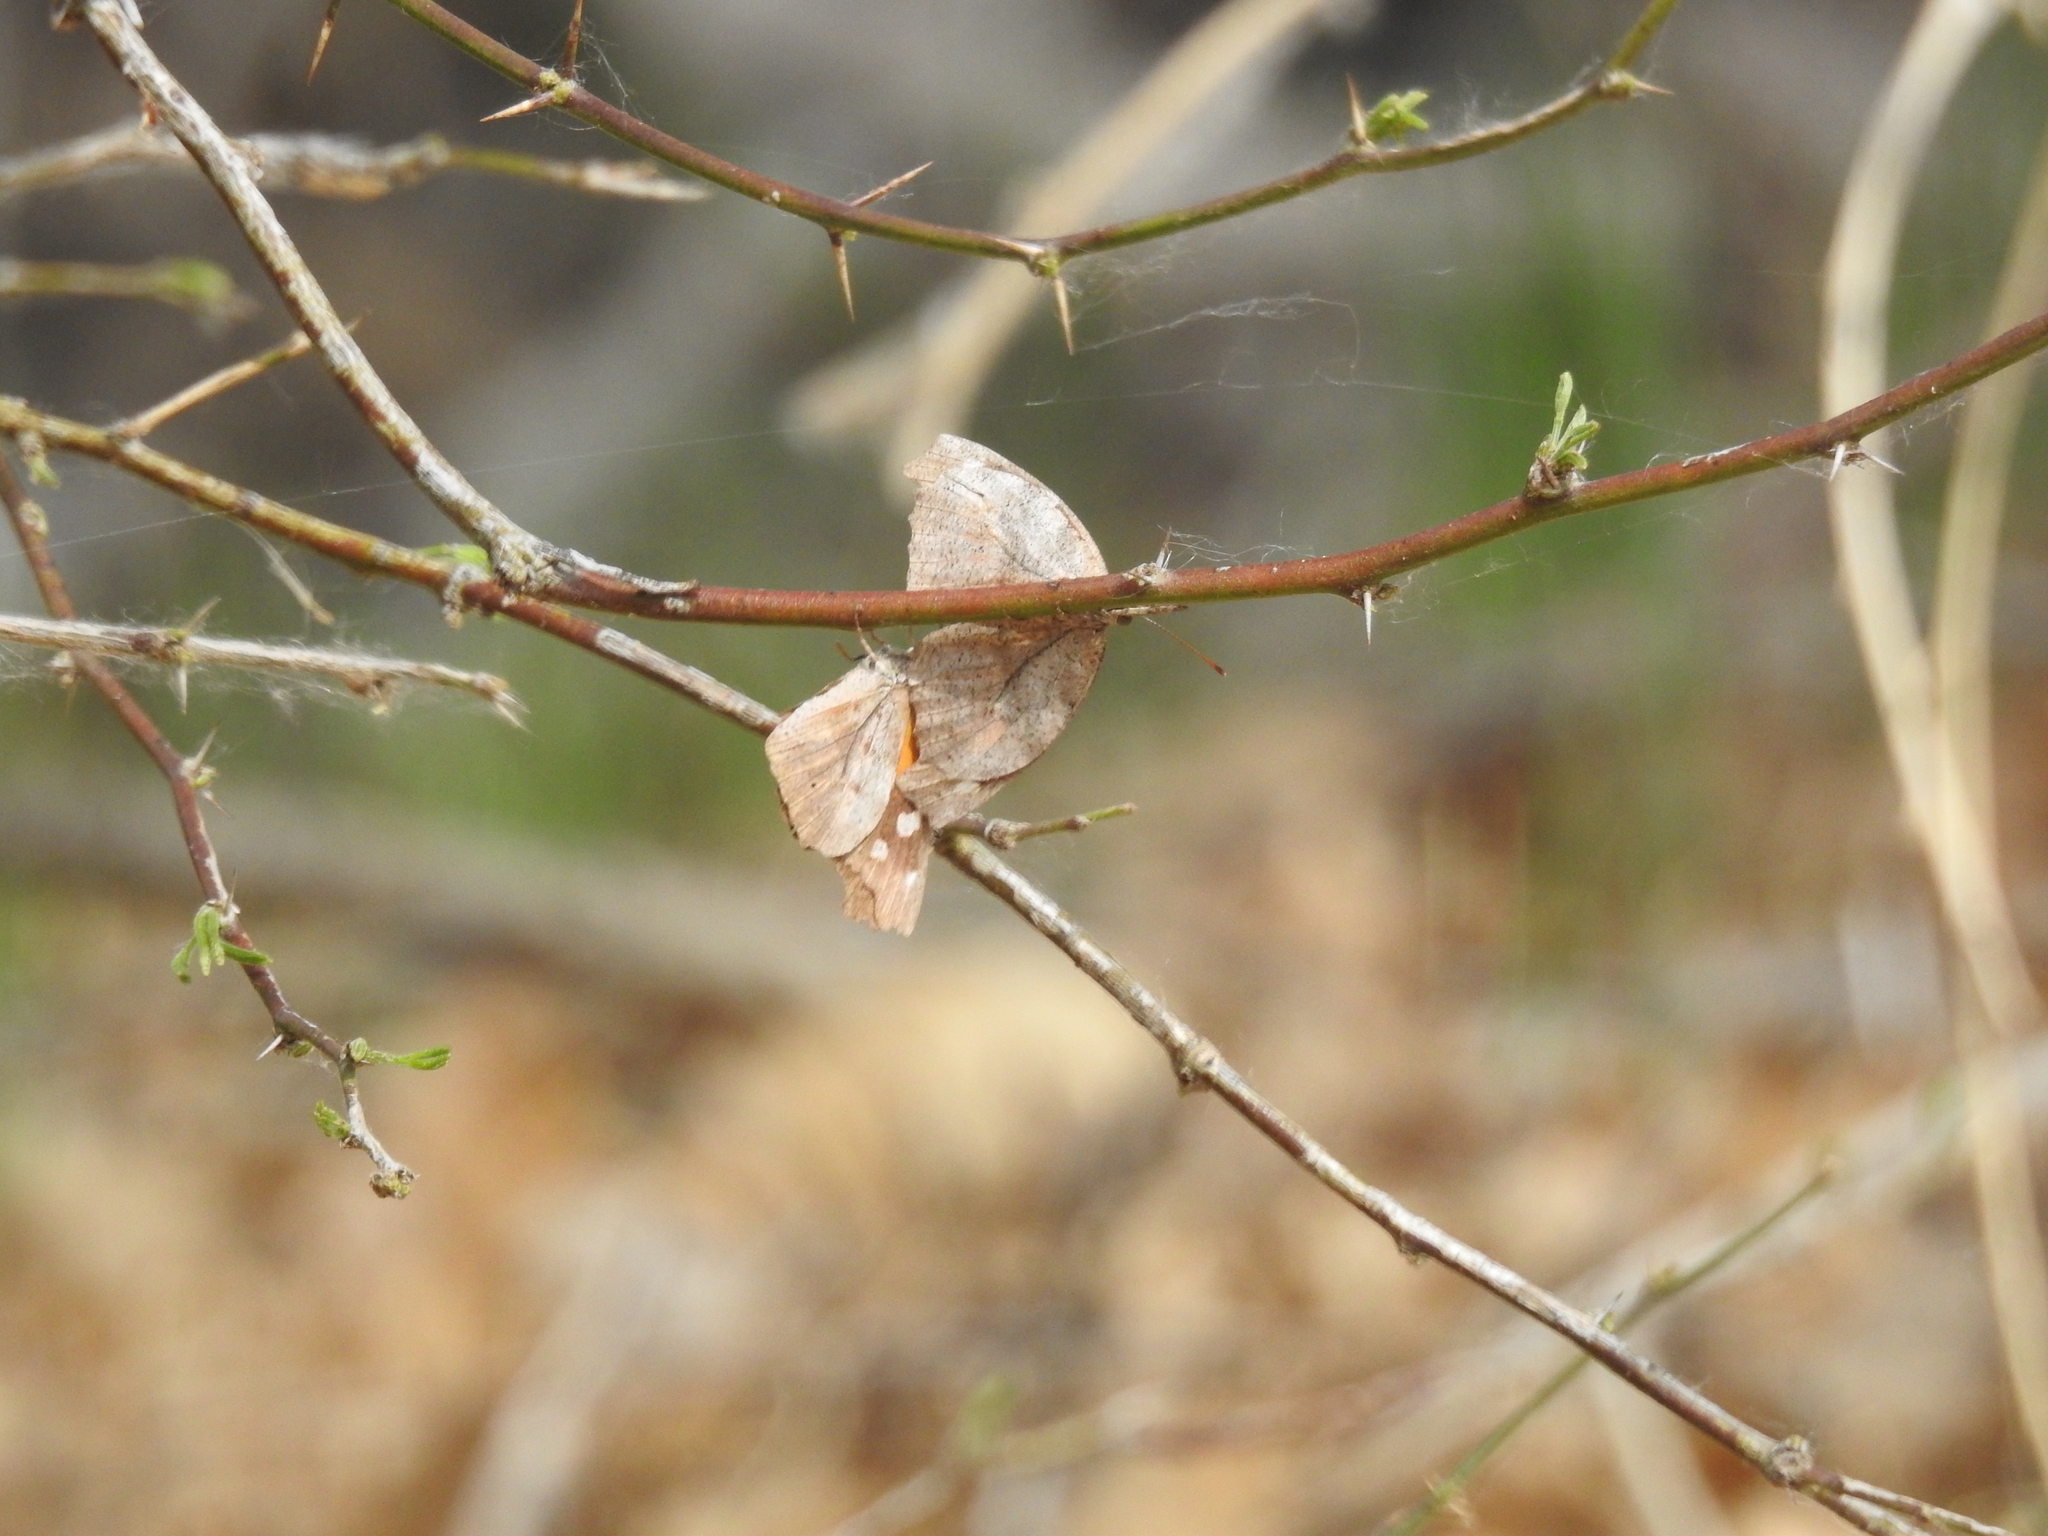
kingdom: Animalia
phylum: Arthropoda
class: Insecta
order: Lepidoptera
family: Nymphalidae
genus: Libytheana
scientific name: Libytheana carinenta
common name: American snout
